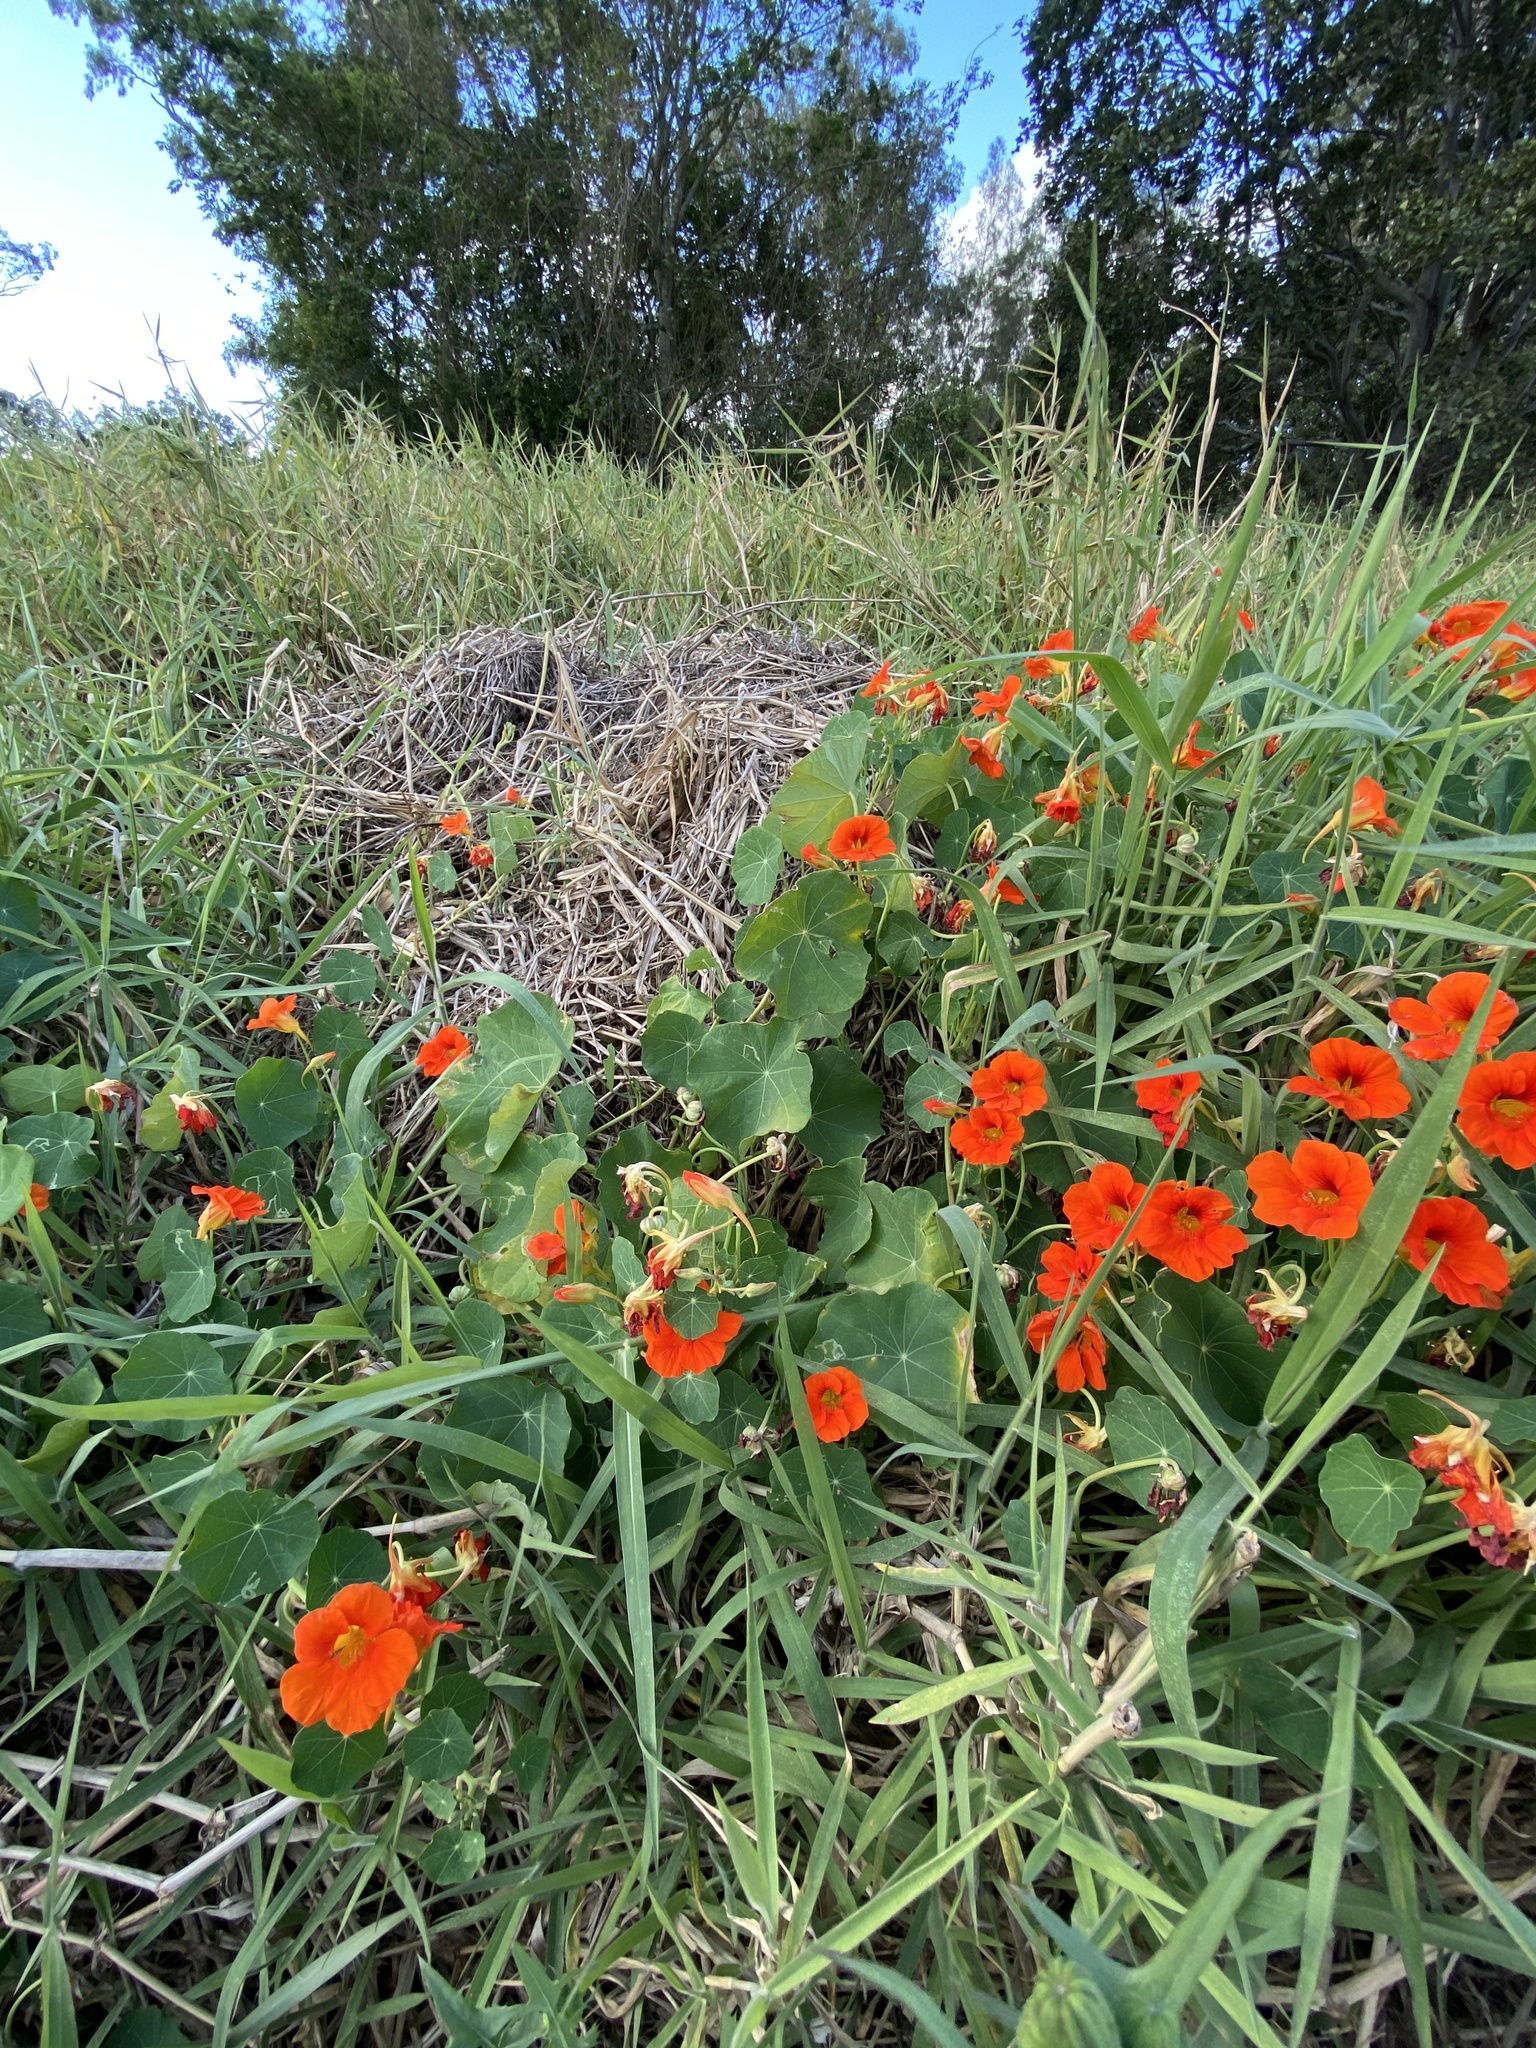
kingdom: Plantae
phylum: Tracheophyta
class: Magnoliopsida
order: Brassicales
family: Tropaeolaceae
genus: Tropaeolum
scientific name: Tropaeolum majus
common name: Nasturtium
